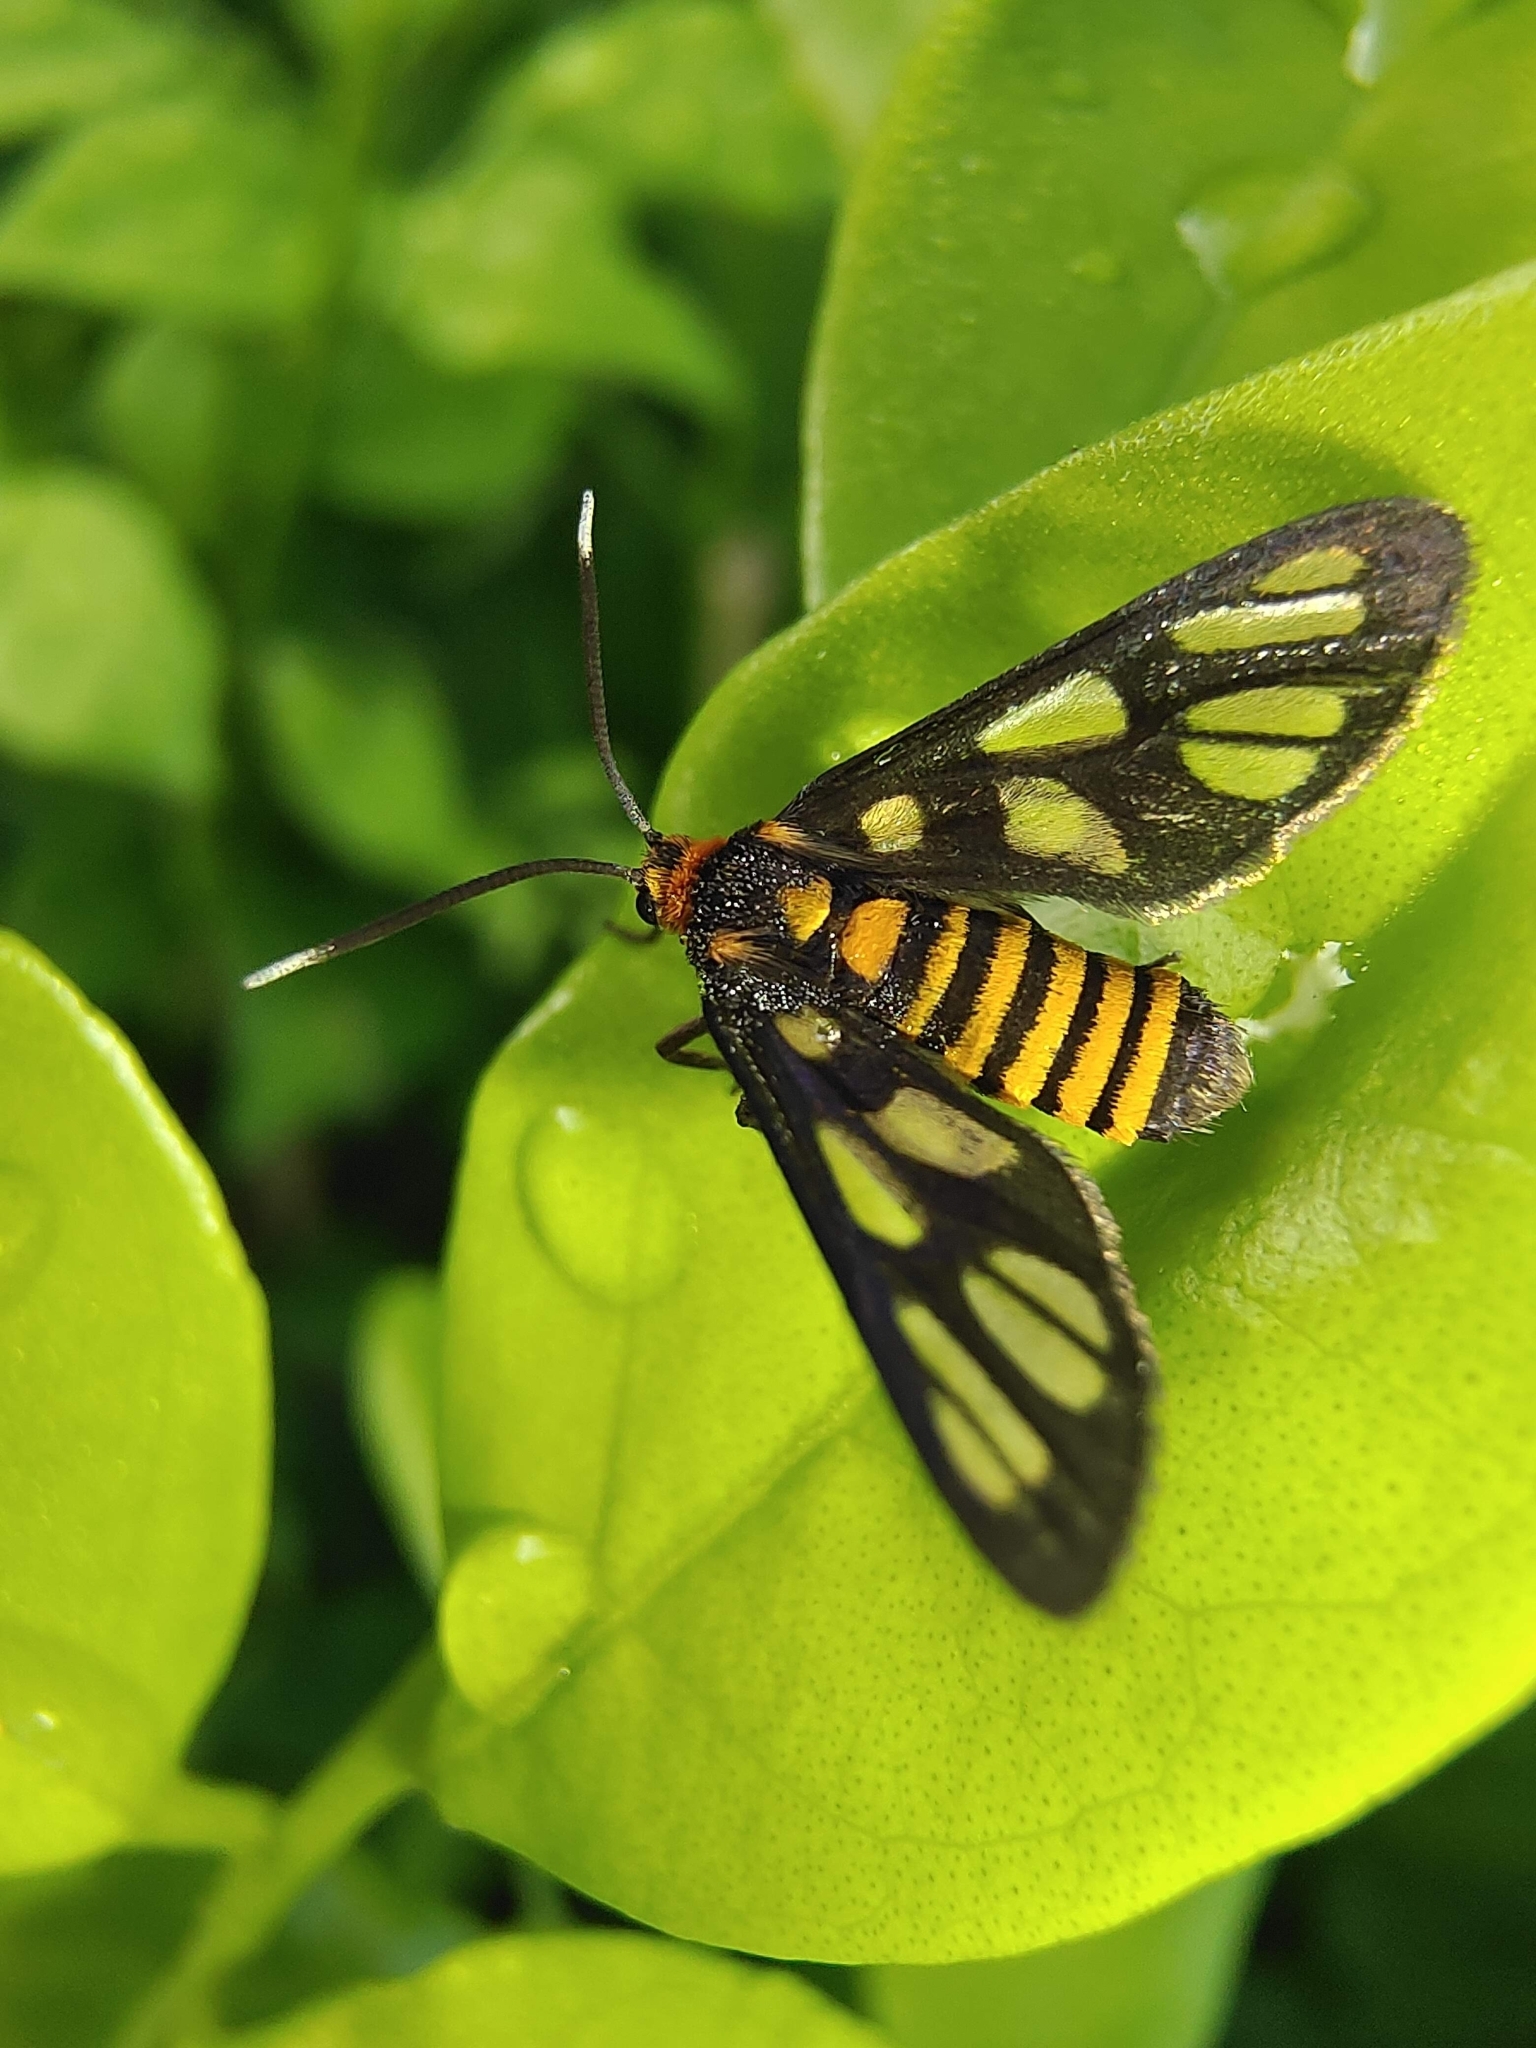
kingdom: Animalia
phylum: Arthropoda
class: Insecta
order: Lepidoptera
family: Erebidae
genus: Amata
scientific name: Amata huebneri
